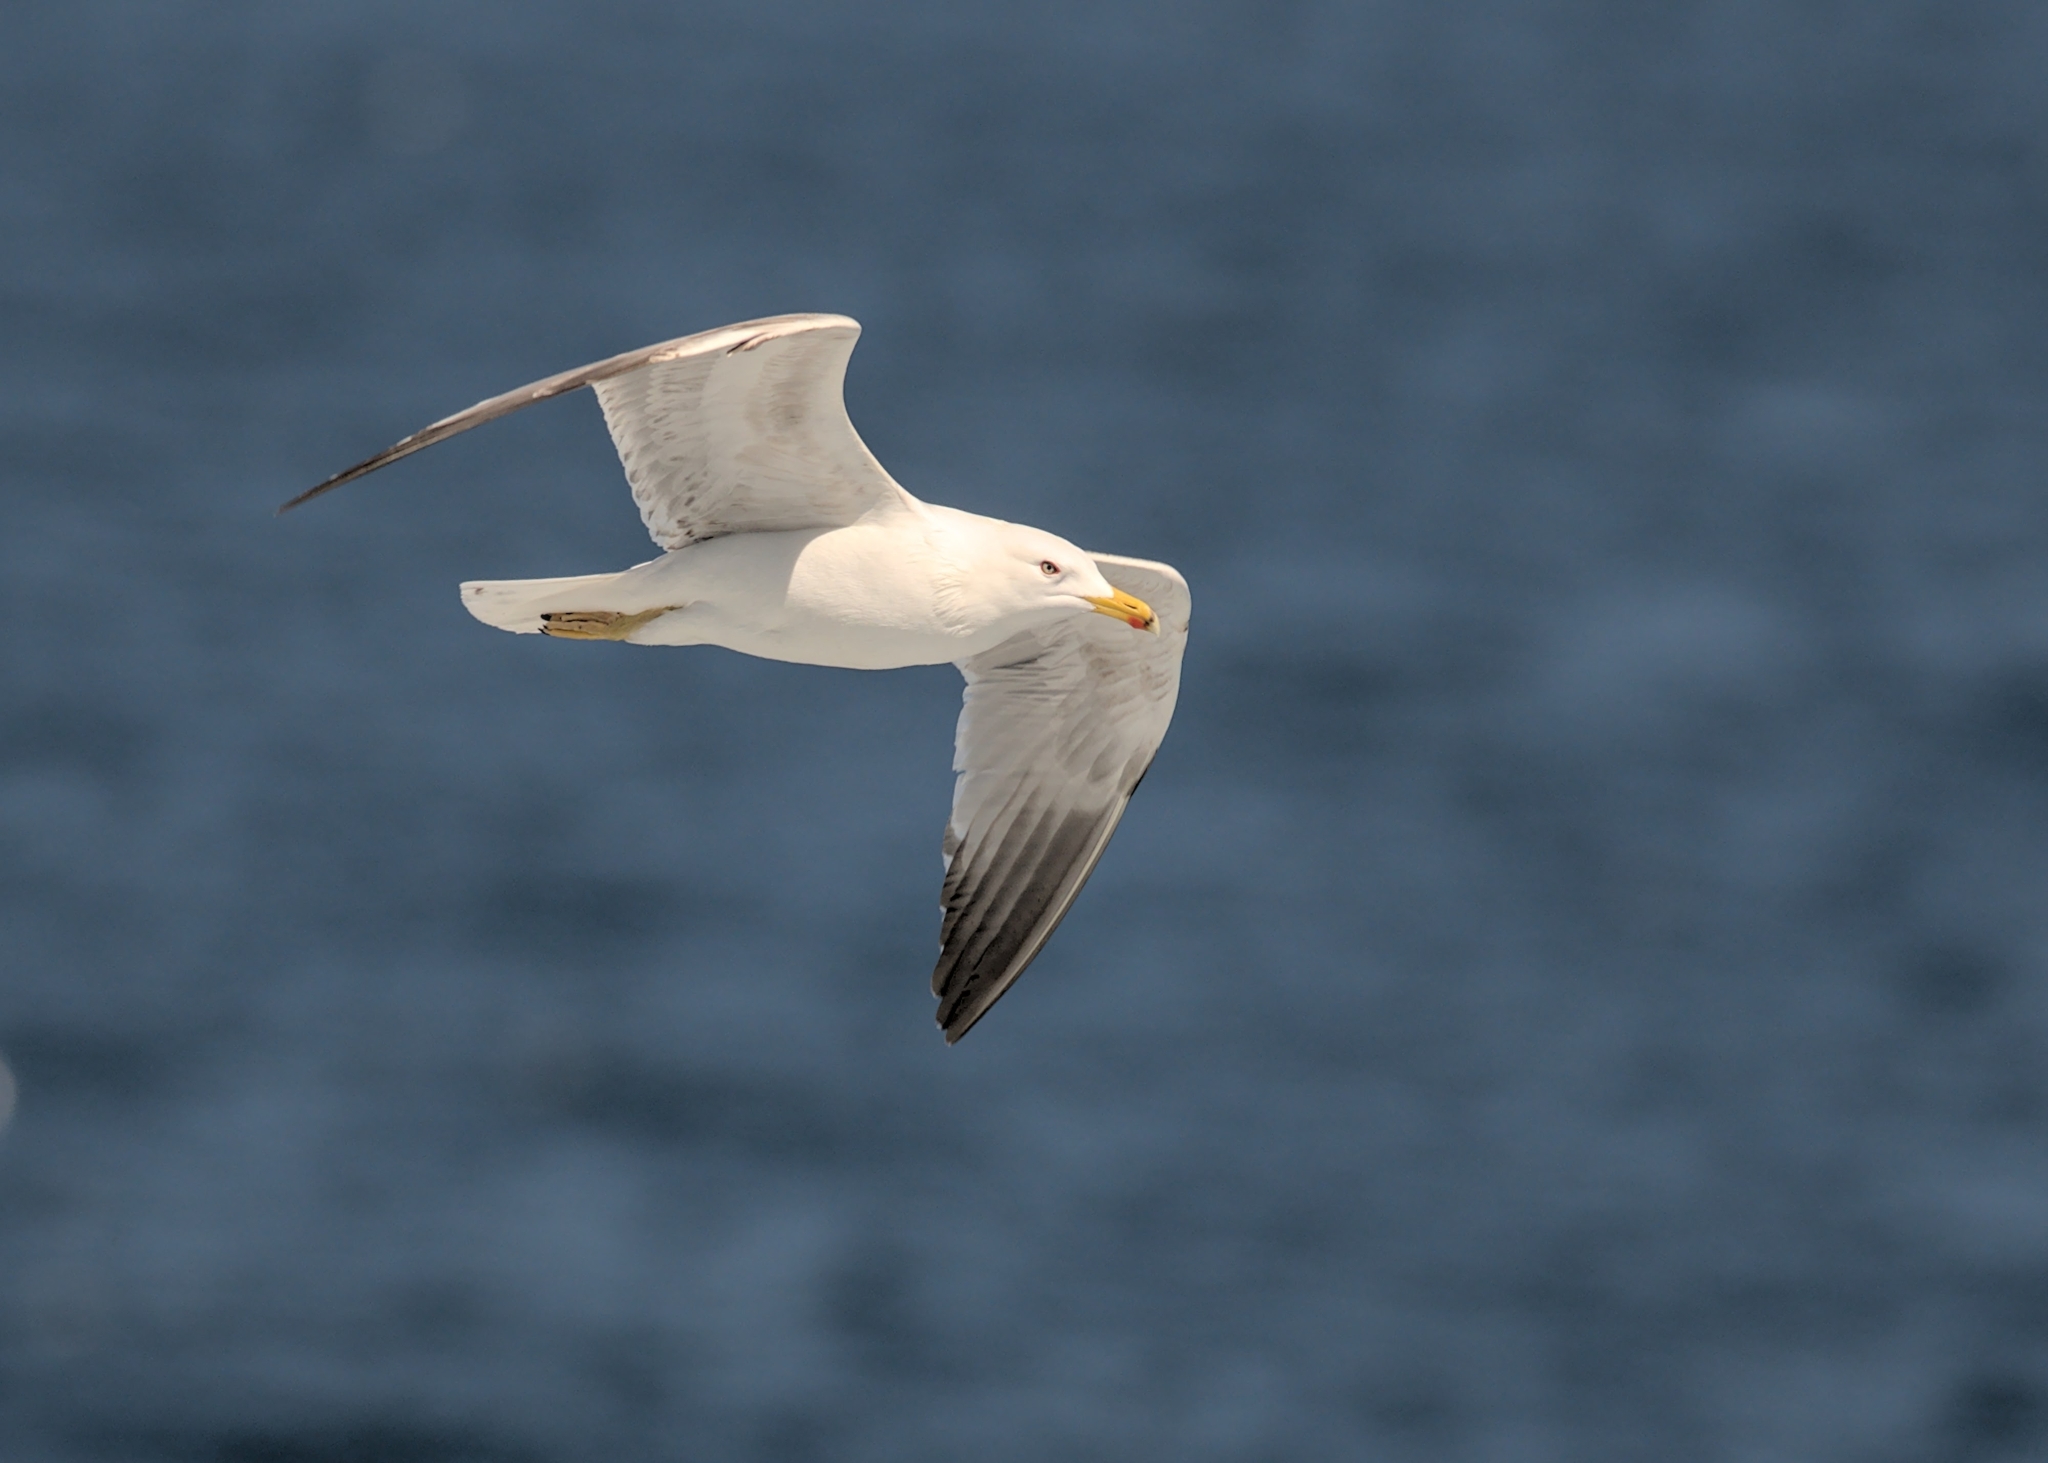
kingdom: Animalia
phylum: Chordata
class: Aves
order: Charadriiformes
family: Laridae
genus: Larus
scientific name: Larus michahellis
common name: Yellow-legged gull
